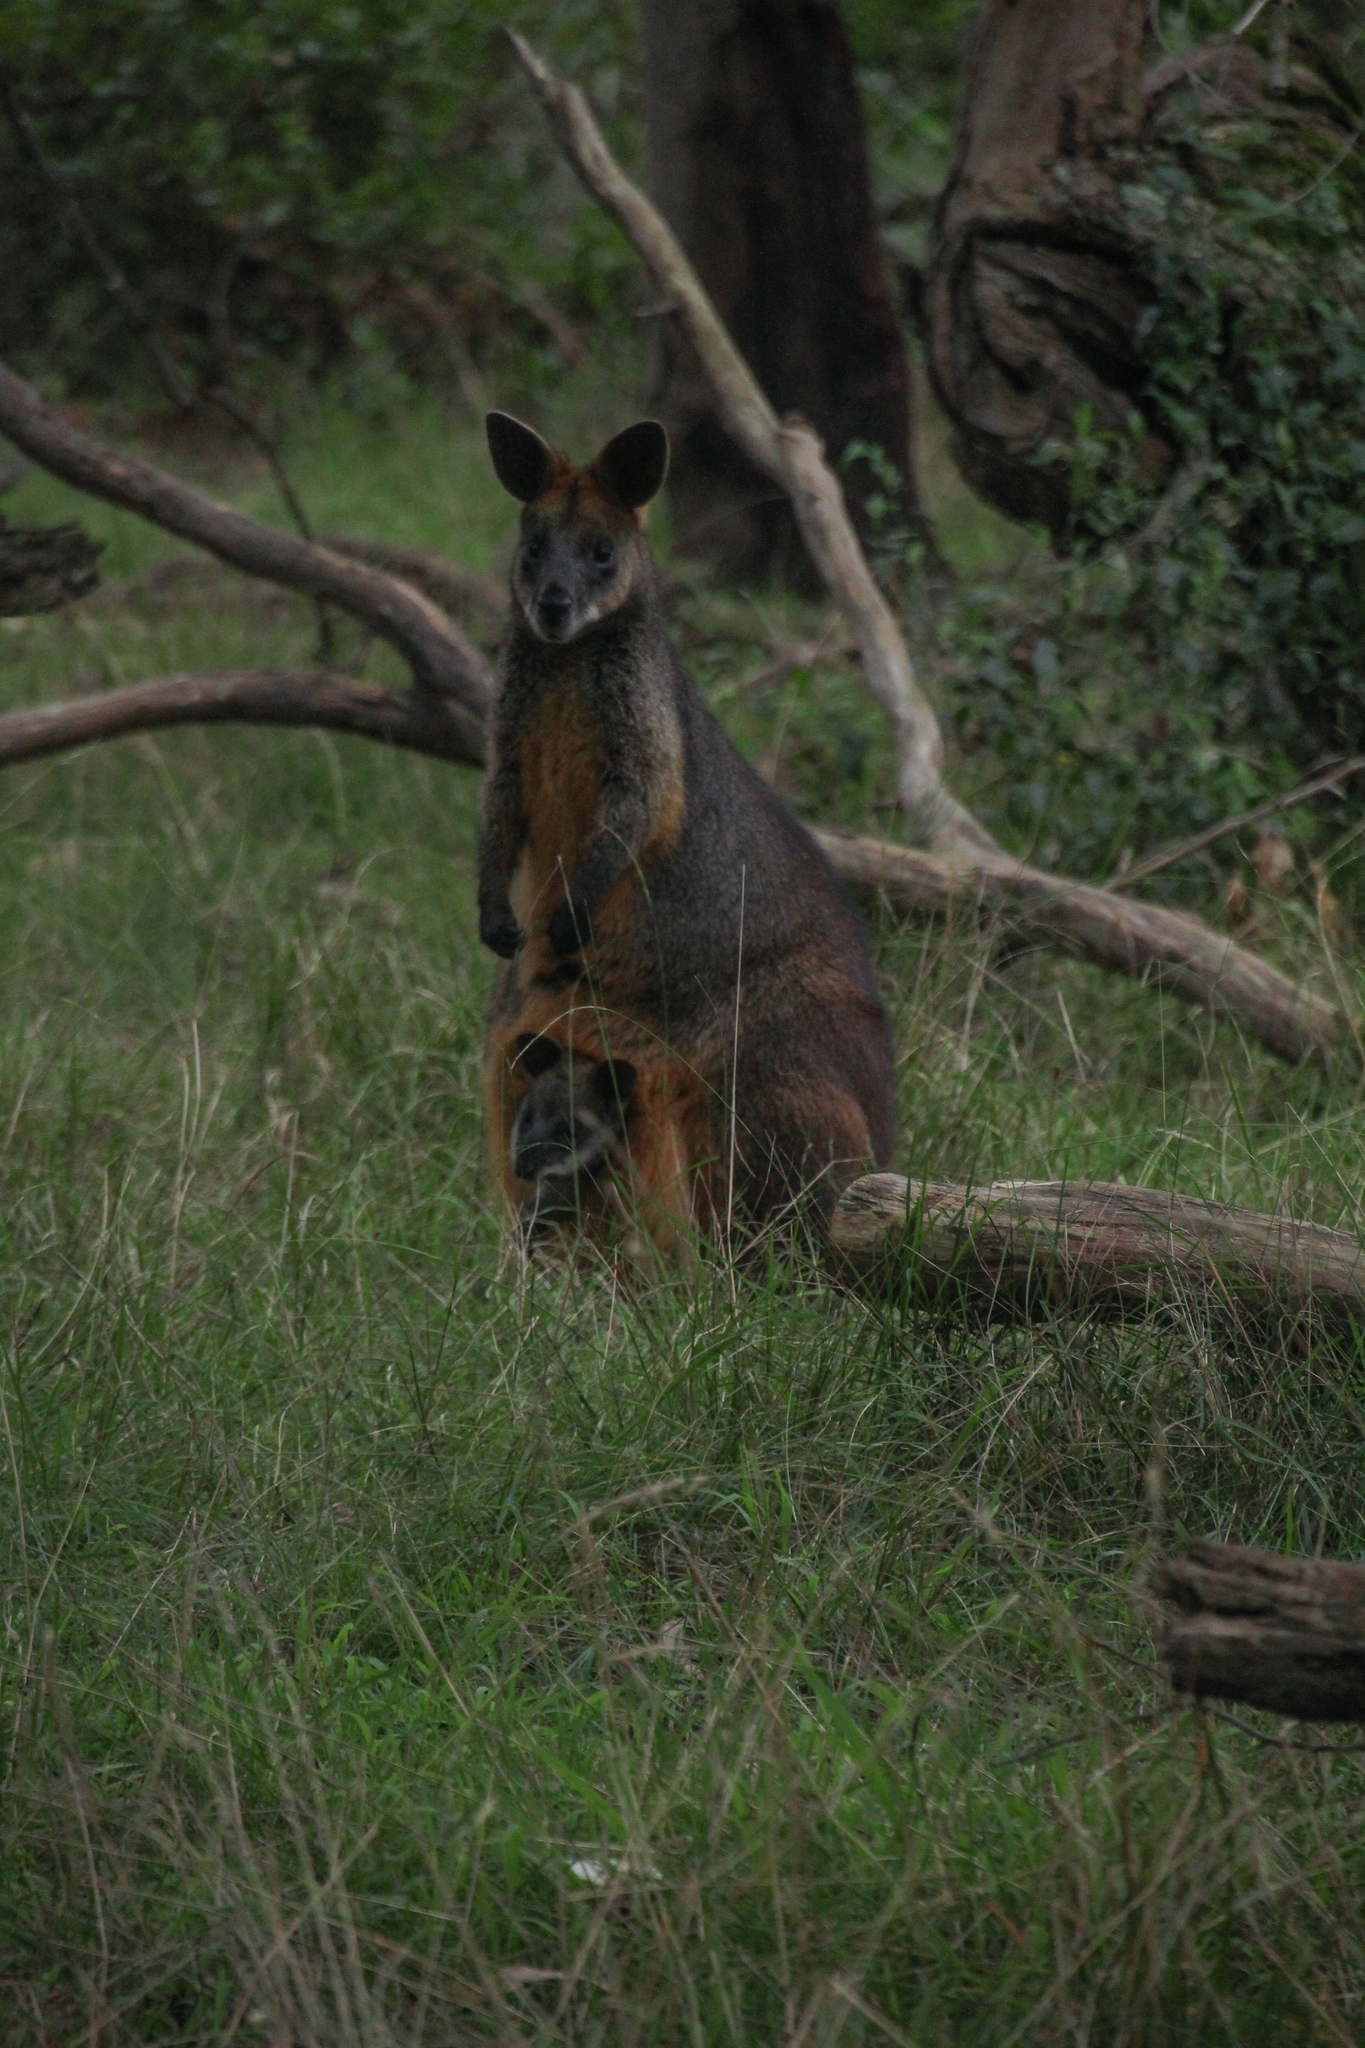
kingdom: Animalia
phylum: Chordata
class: Mammalia
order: Diprotodontia
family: Macropodidae
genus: Wallabia
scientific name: Wallabia bicolor
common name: Swamp wallaby
